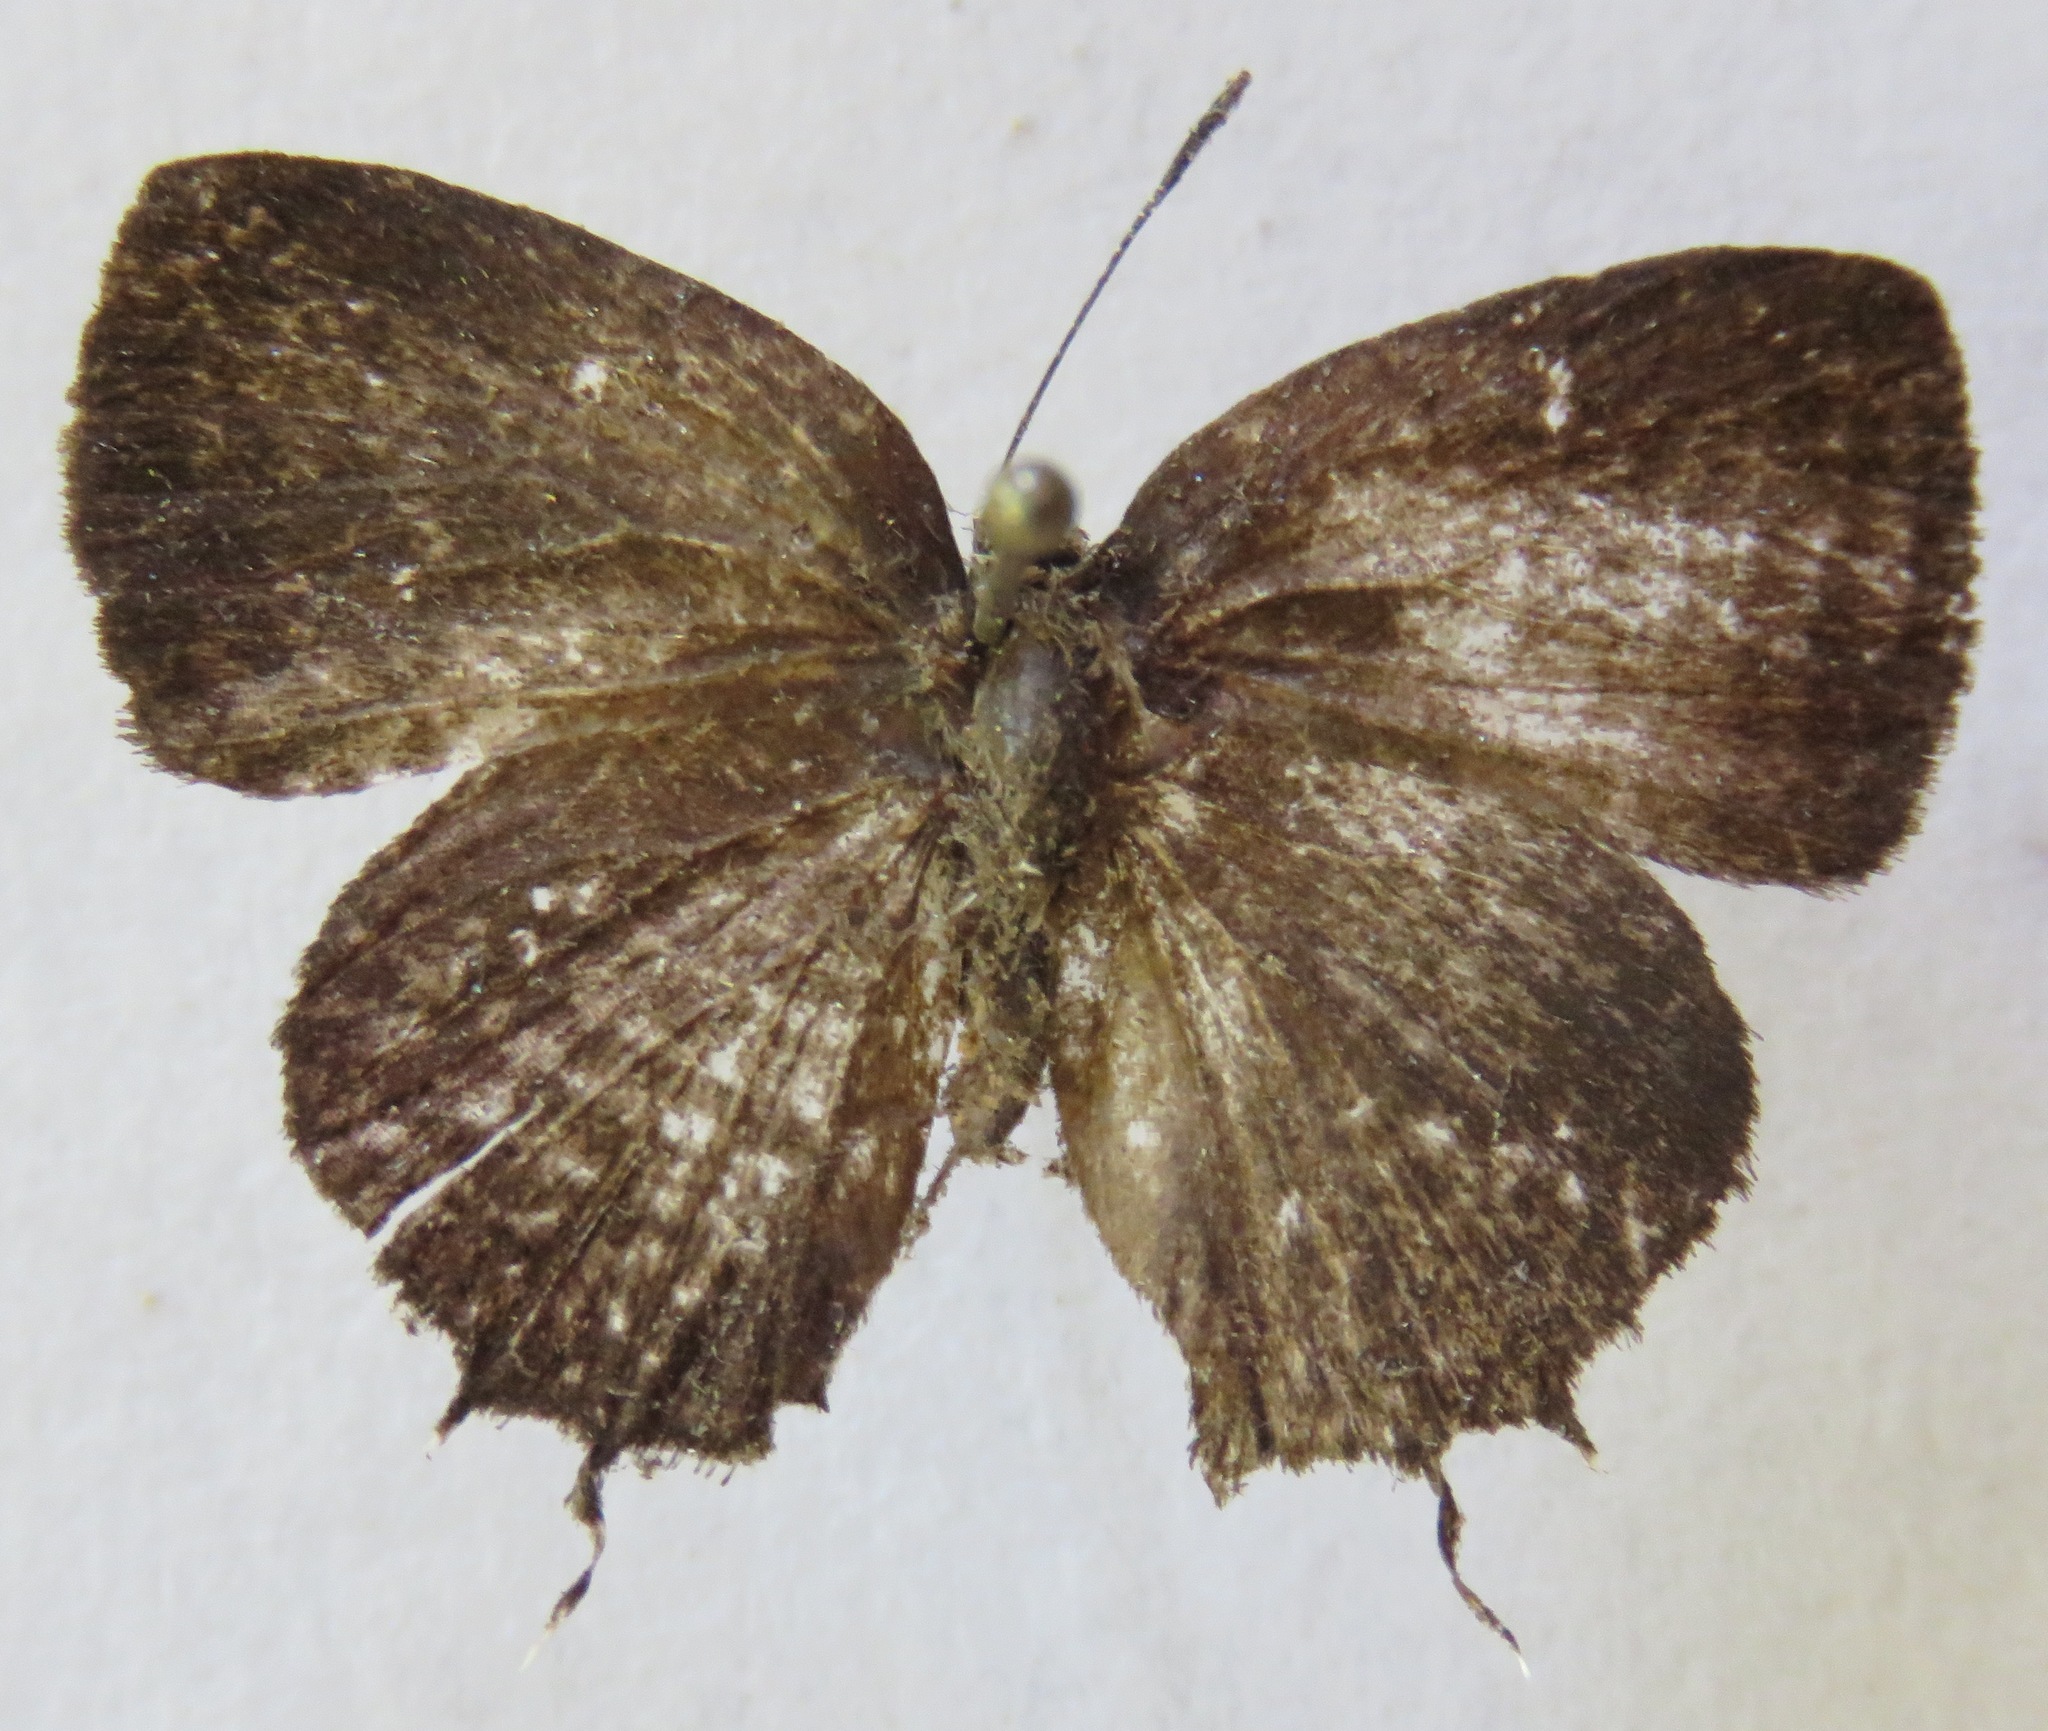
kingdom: Animalia
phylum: Arthropoda
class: Insecta
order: Lepidoptera
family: Lycaenidae
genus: Thecla
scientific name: Thecla thales
